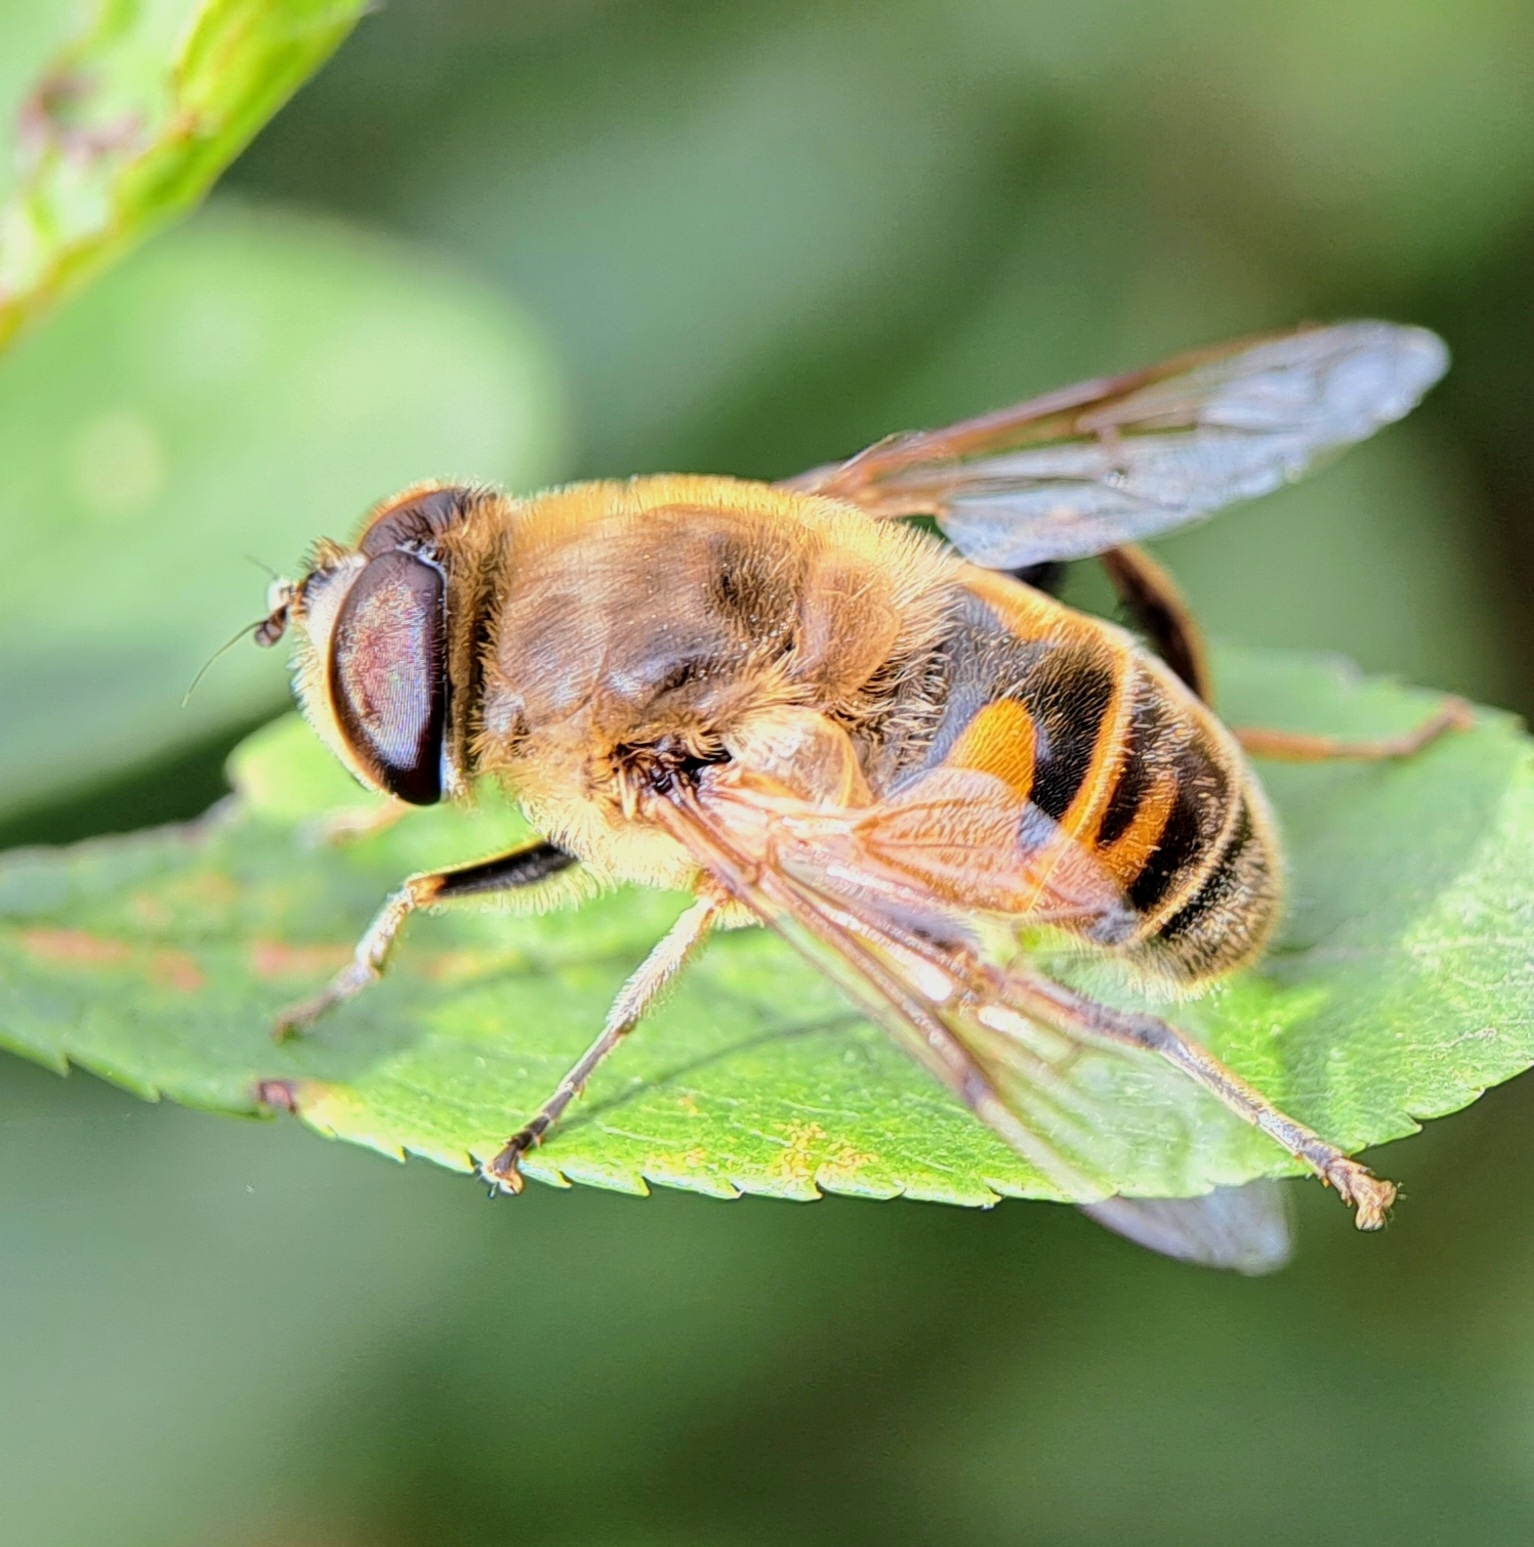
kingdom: Animalia
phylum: Arthropoda
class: Insecta
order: Diptera
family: Syrphidae
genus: Eristalis
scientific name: Eristalis tenax
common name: Drone fly
